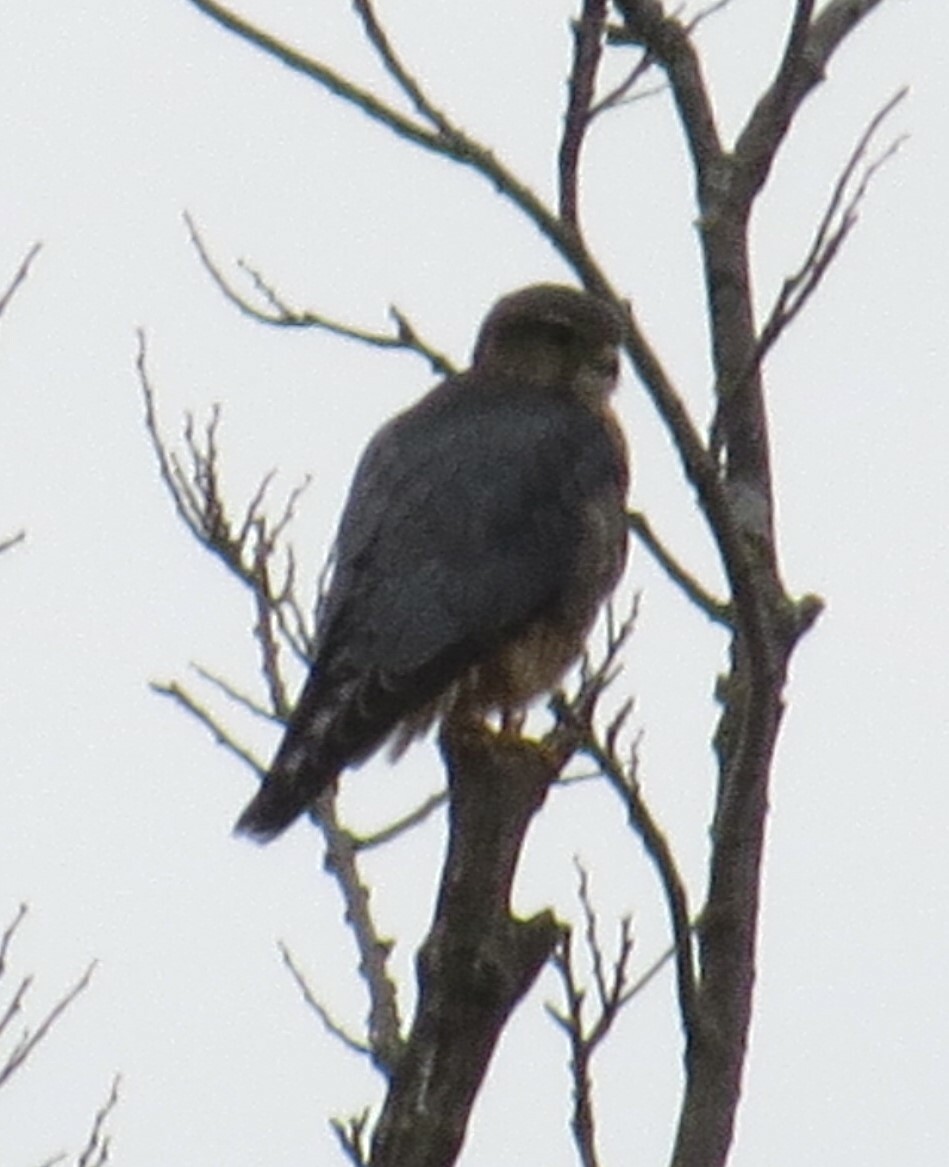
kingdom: Animalia
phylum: Chordata
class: Aves
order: Falconiformes
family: Falconidae
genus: Falco
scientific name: Falco columbarius
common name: Merlin
